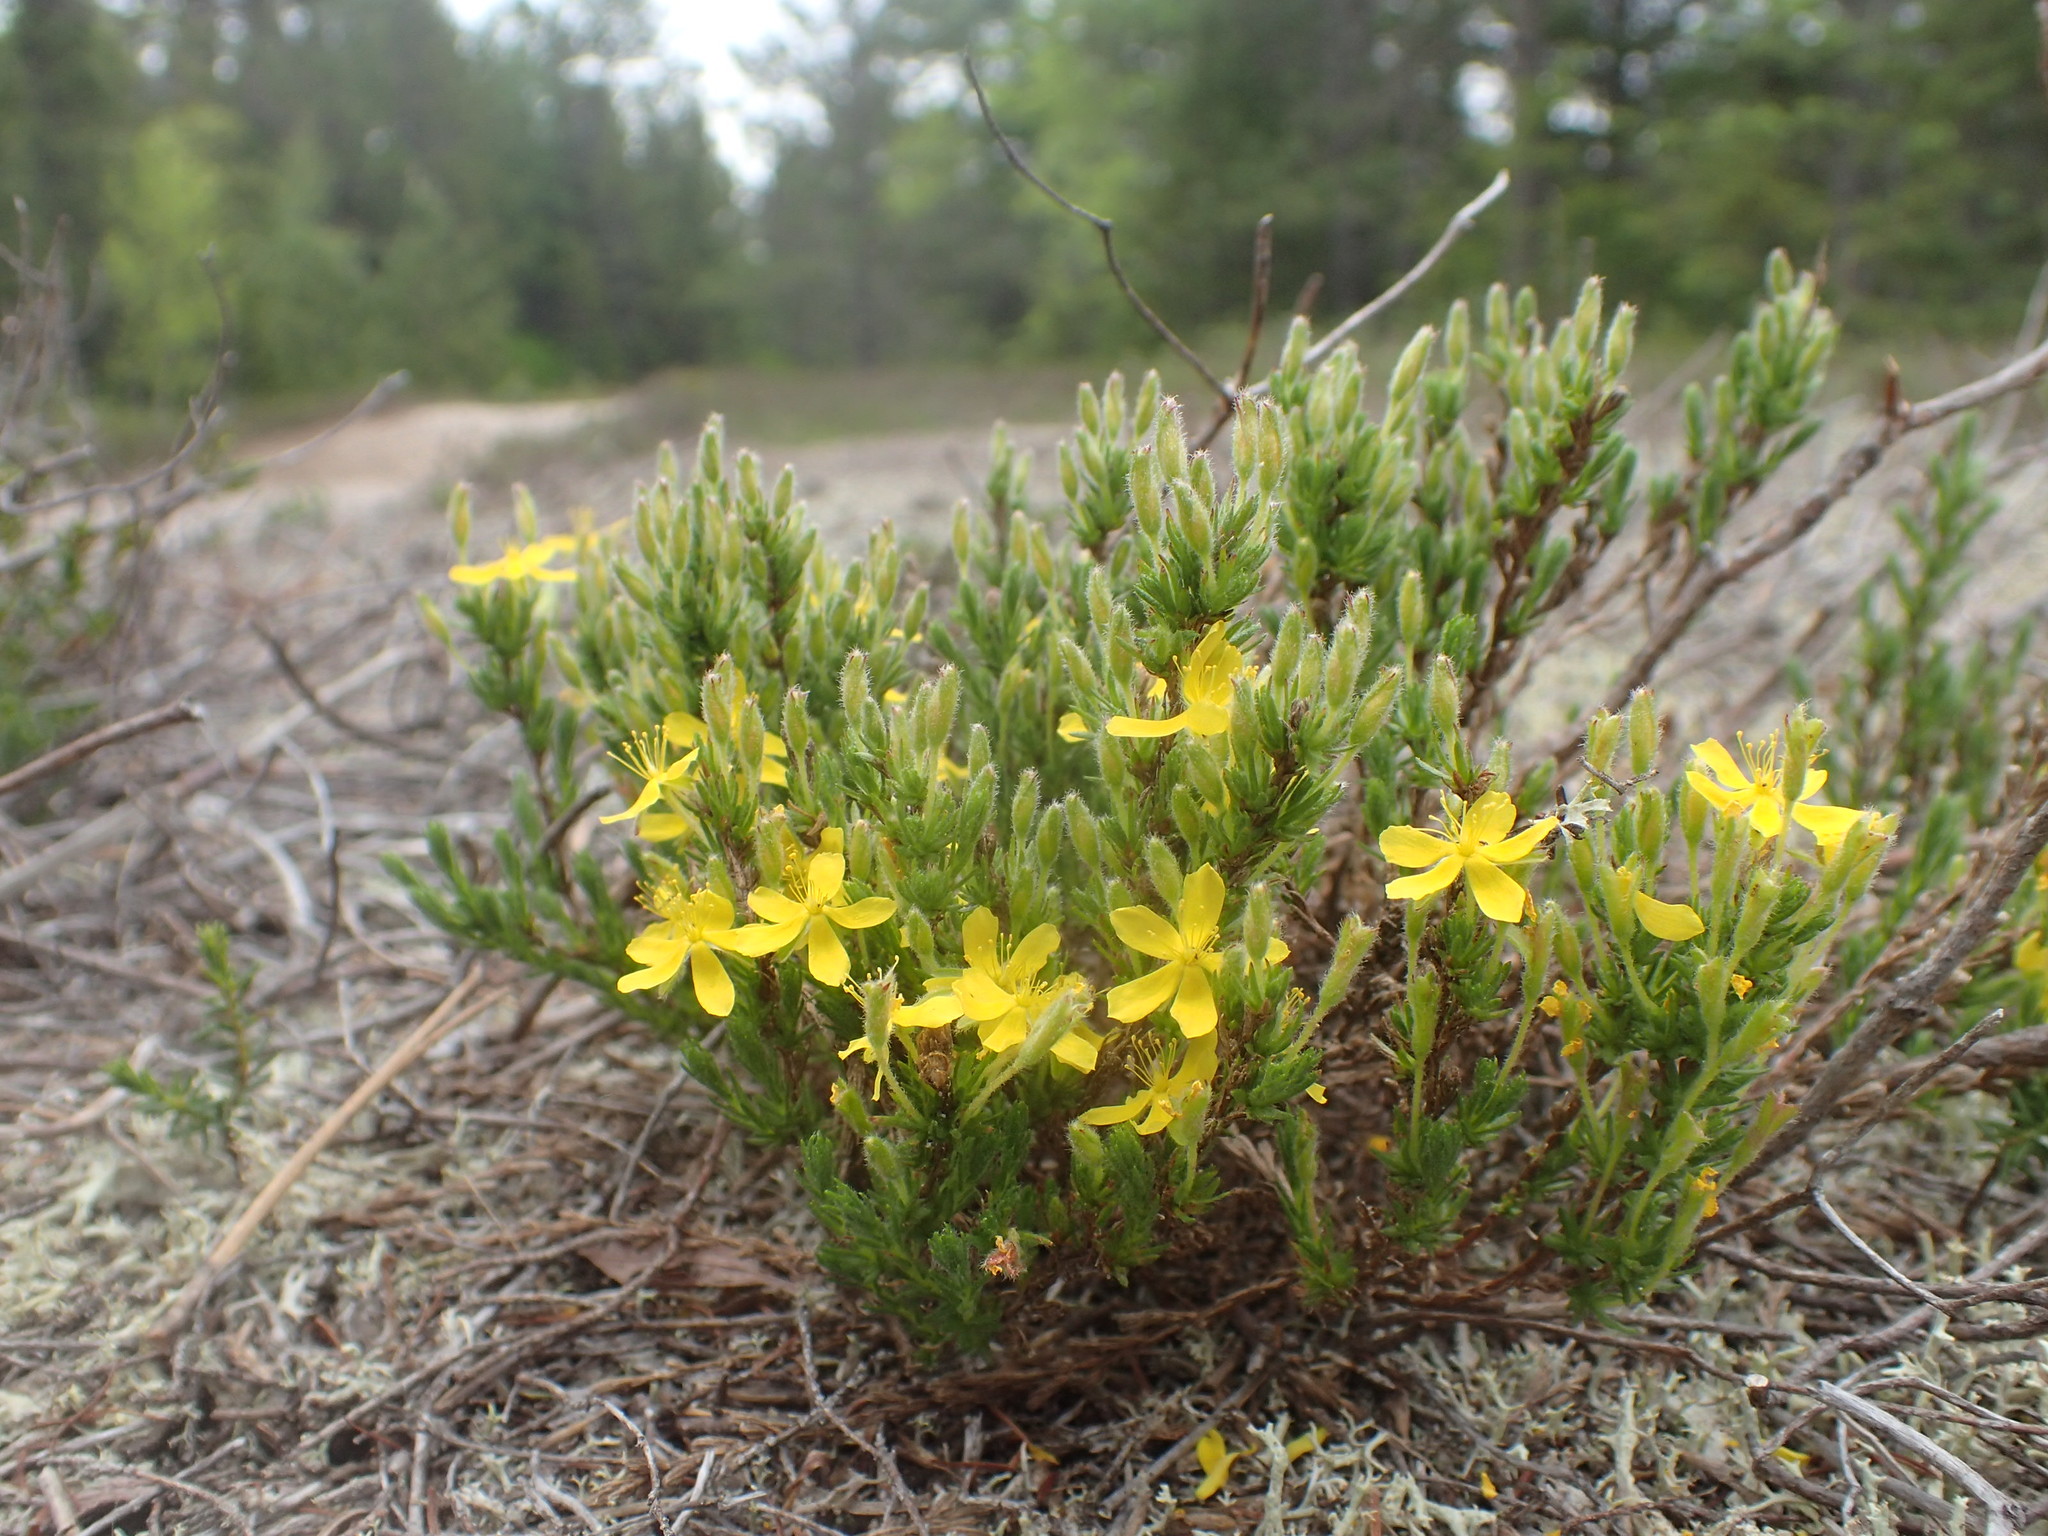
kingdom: Plantae
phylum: Tracheophyta
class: Magnoliopsida
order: Malvales
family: Cistaceae
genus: Hudsonia
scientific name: Hudsonia ericoides
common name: Golden-heather
